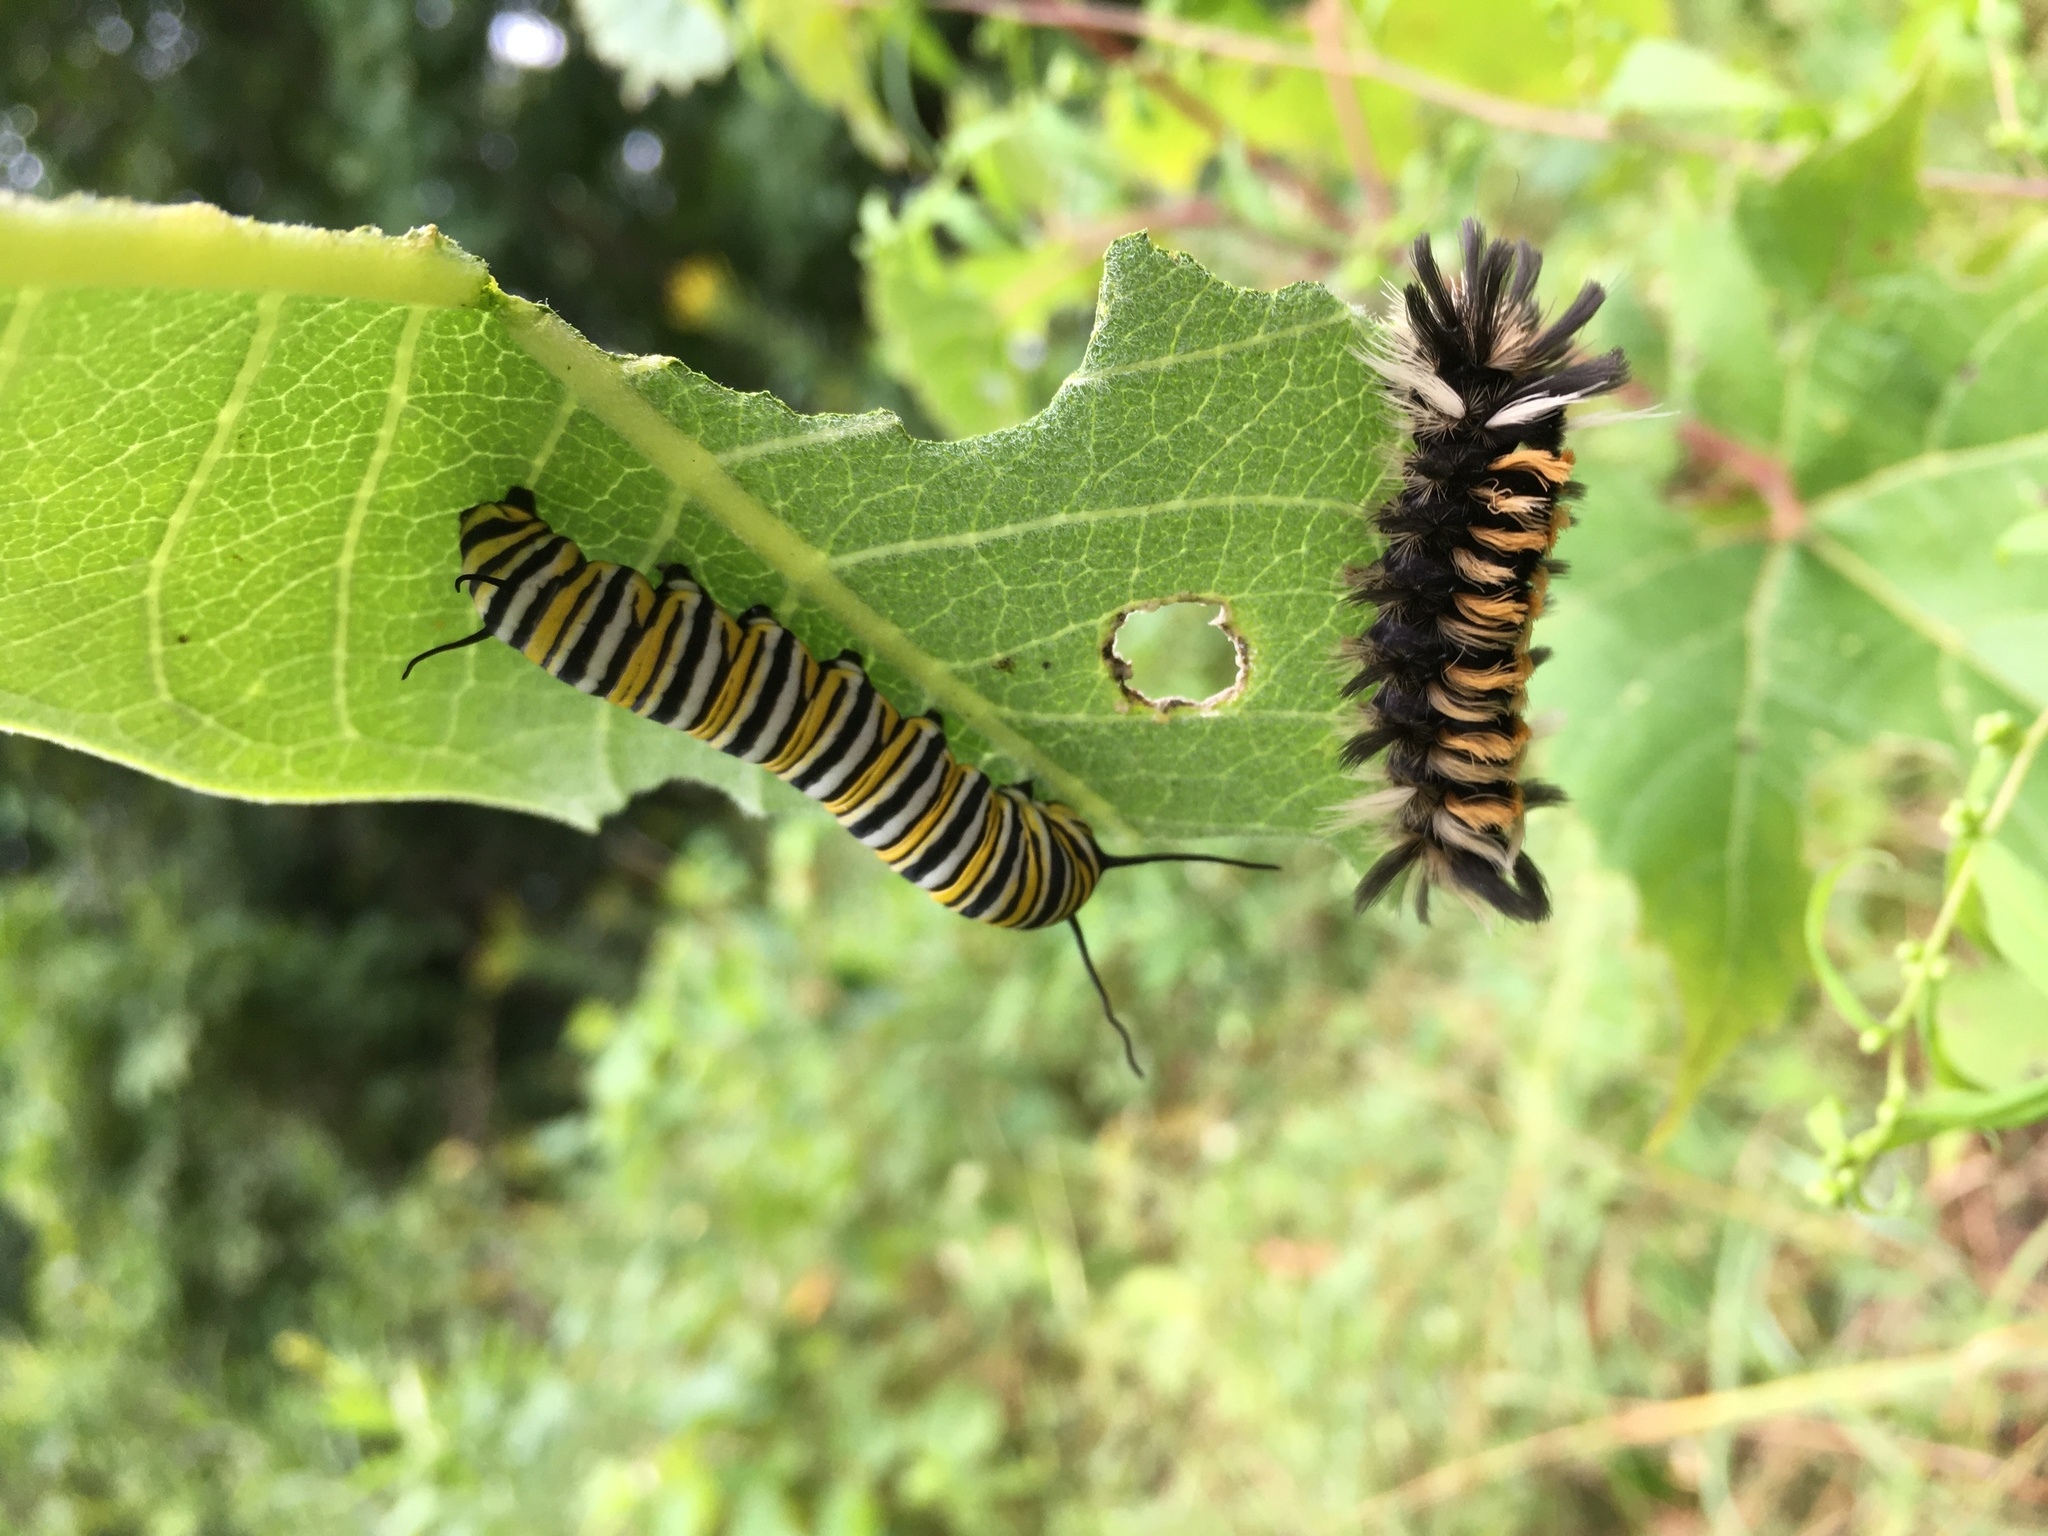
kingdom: Animalia
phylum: Arthropoda
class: Insecta
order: Lepidoptera
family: Erebidae
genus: Euchaetes
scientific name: Euchaetes egle
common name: Milkweed tussock moth
